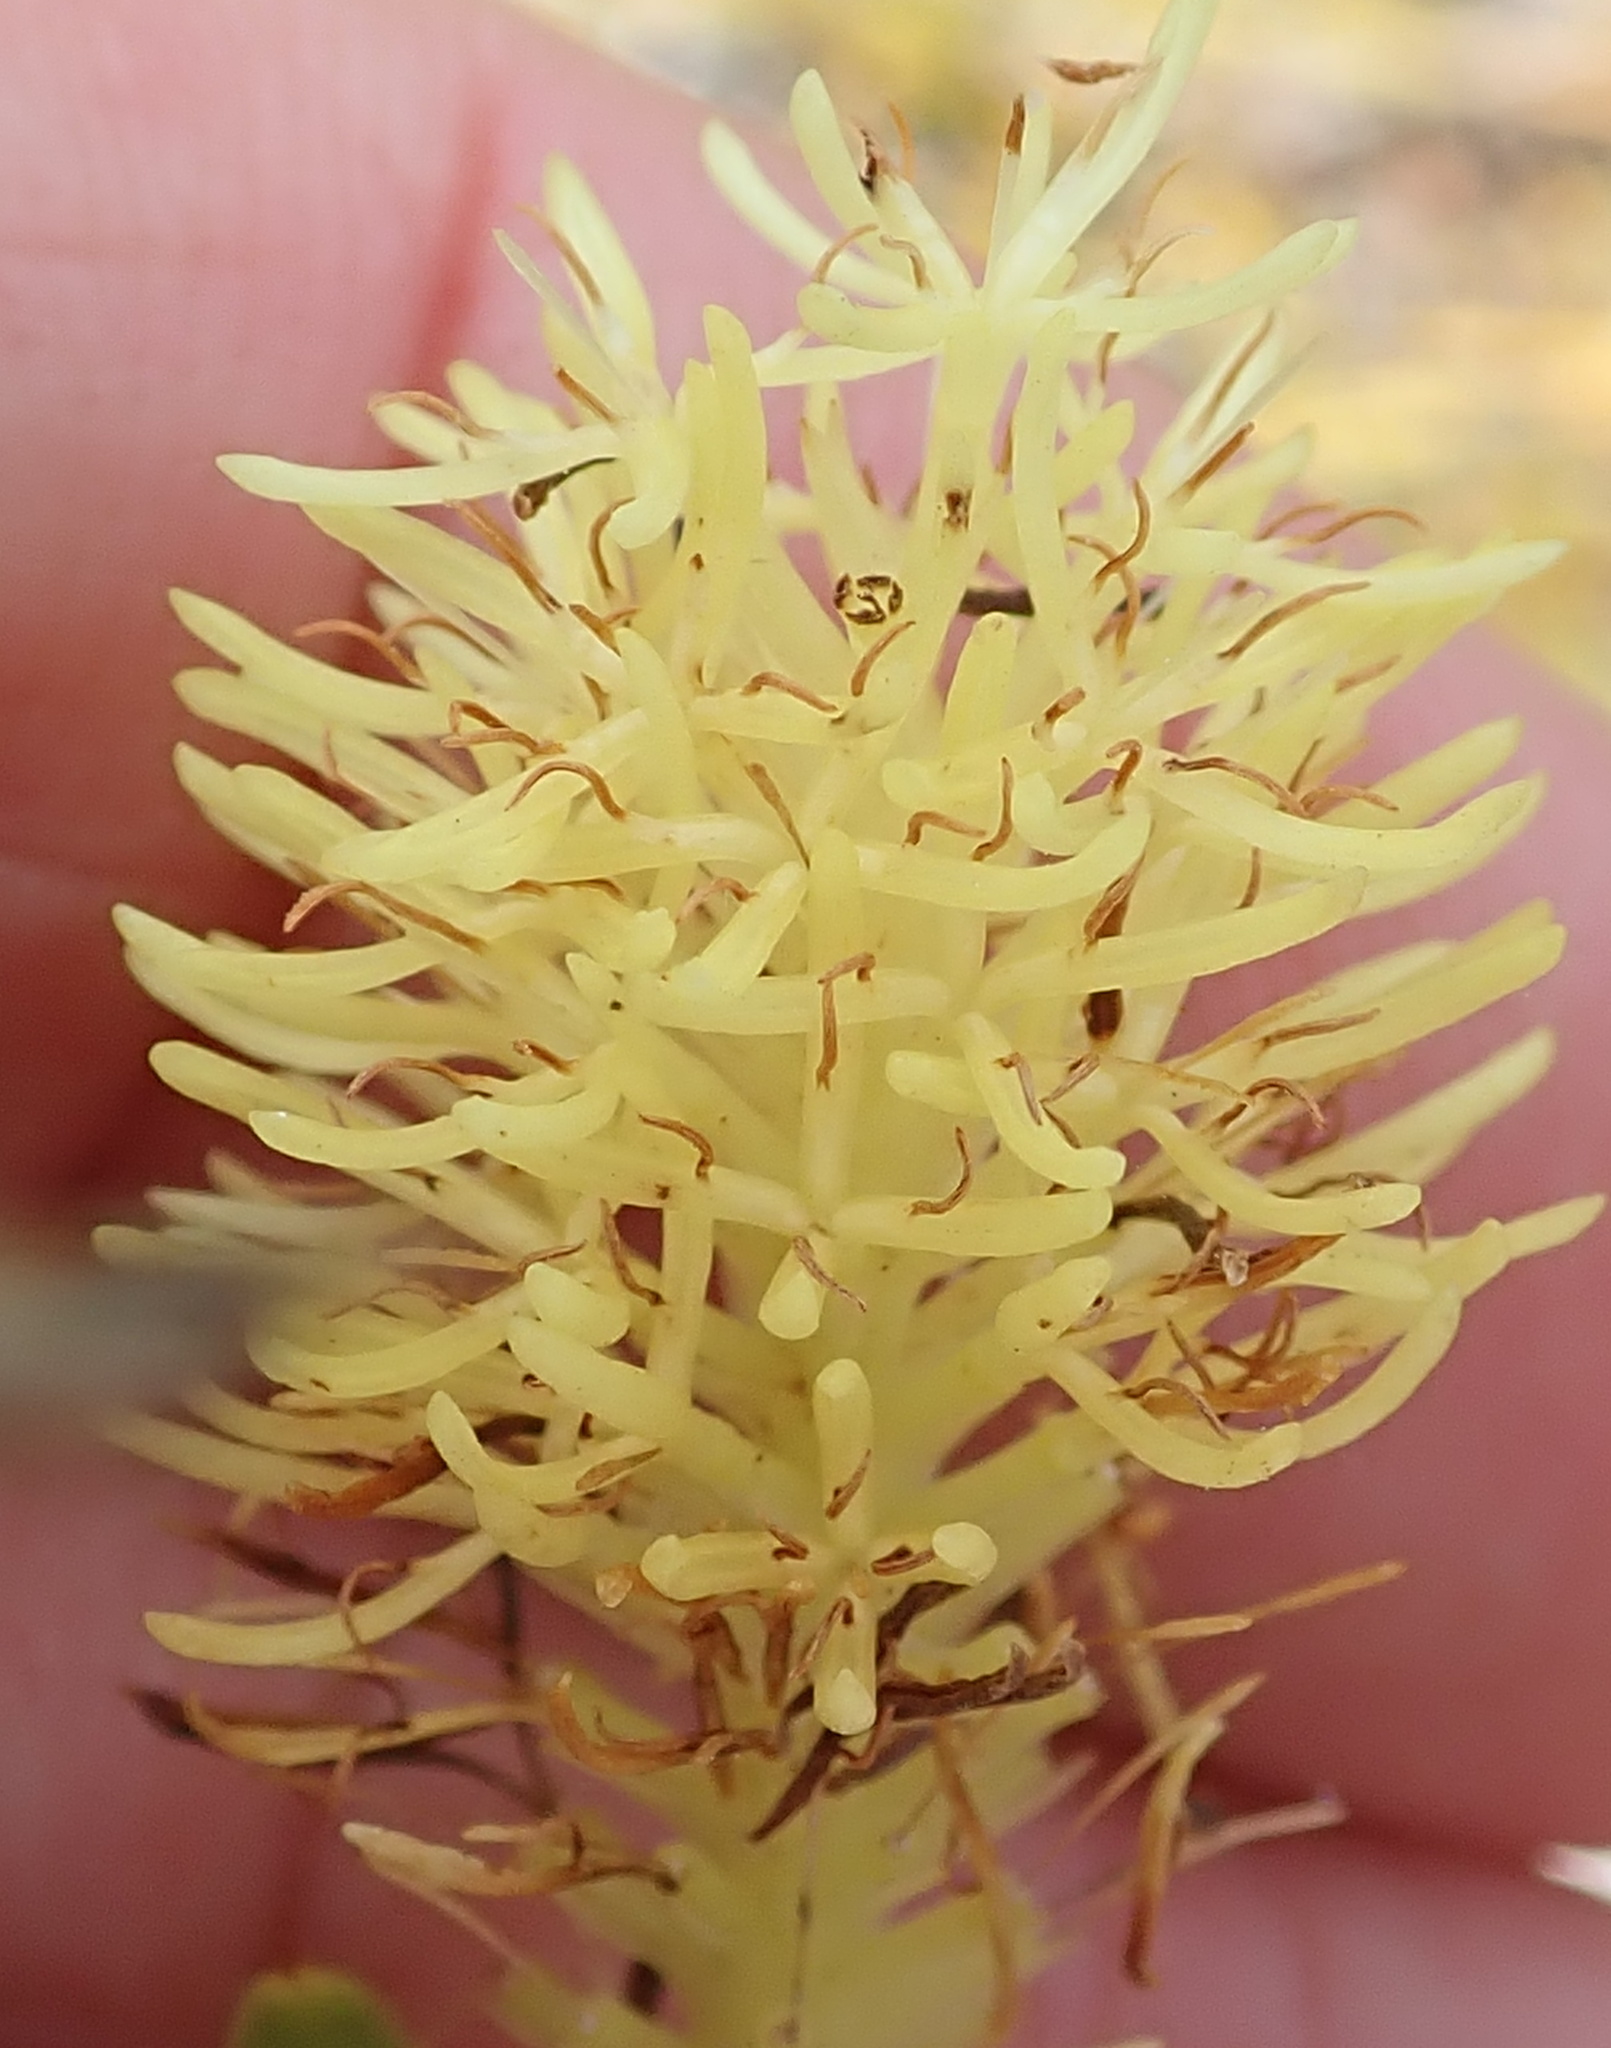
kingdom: Plantae
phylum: Tracheophyta
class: Magnoliopsida
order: Proteales
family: Proteaceae
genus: Aulax
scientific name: Aulax umbellata
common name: Broad-leaf featherbush
